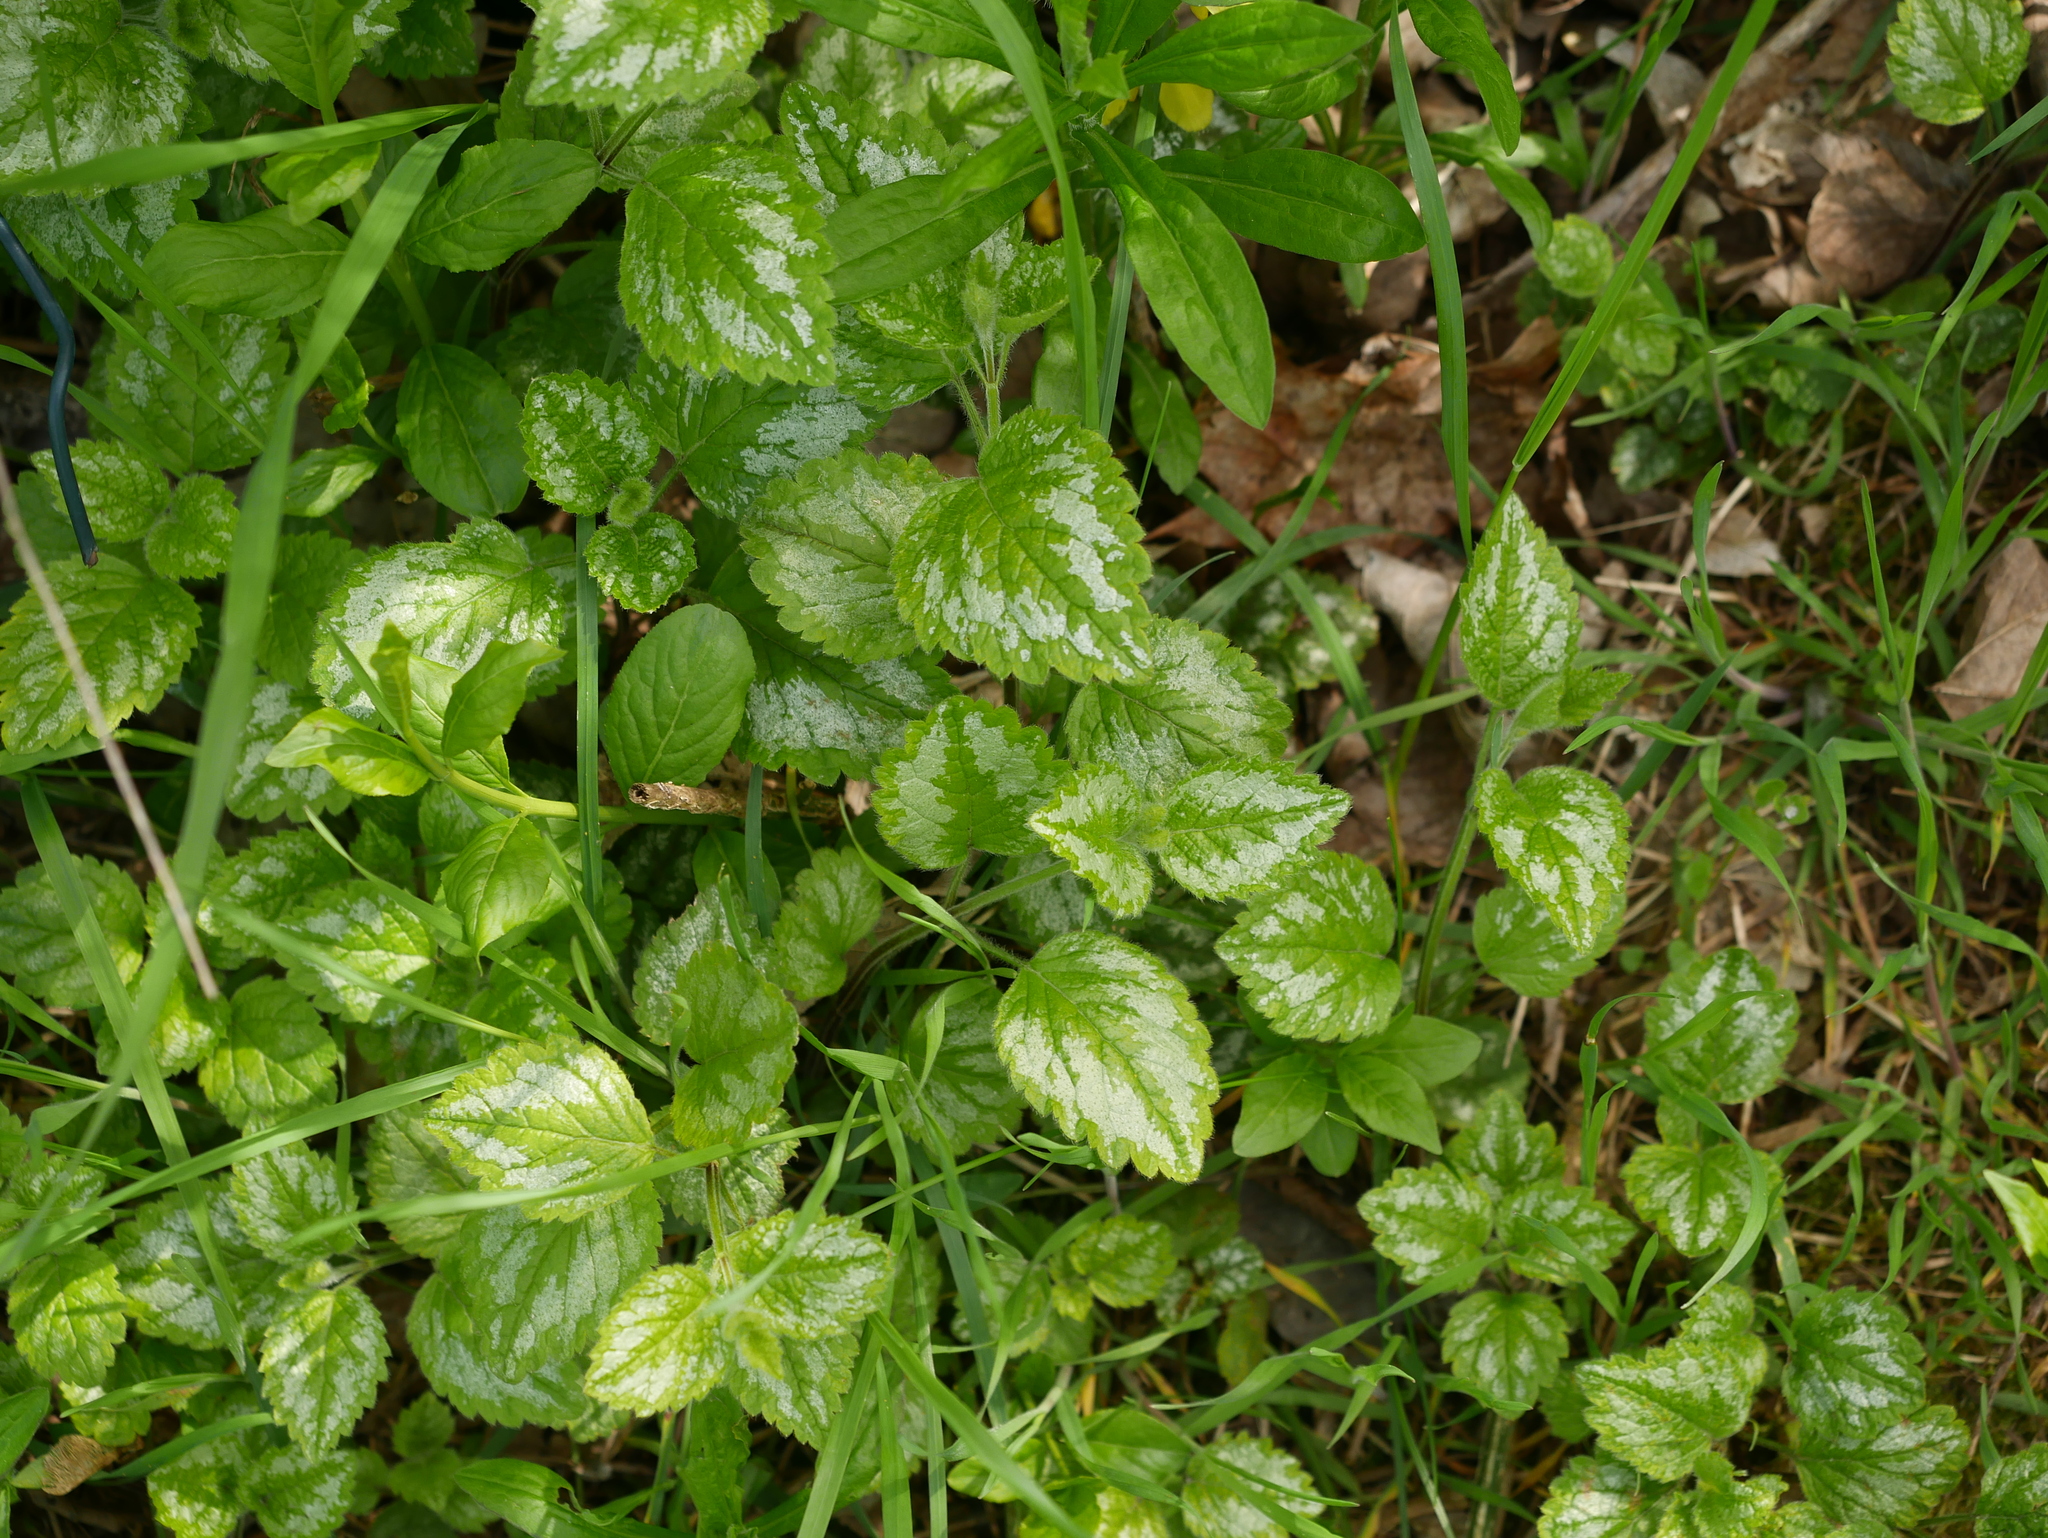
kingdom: Plantae
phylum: Tracheophyta
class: Magnoliopsida
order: Lamiales
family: Lamiaceae
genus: Lamium
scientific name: Lamium galeobdolon
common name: Yellow archangel
